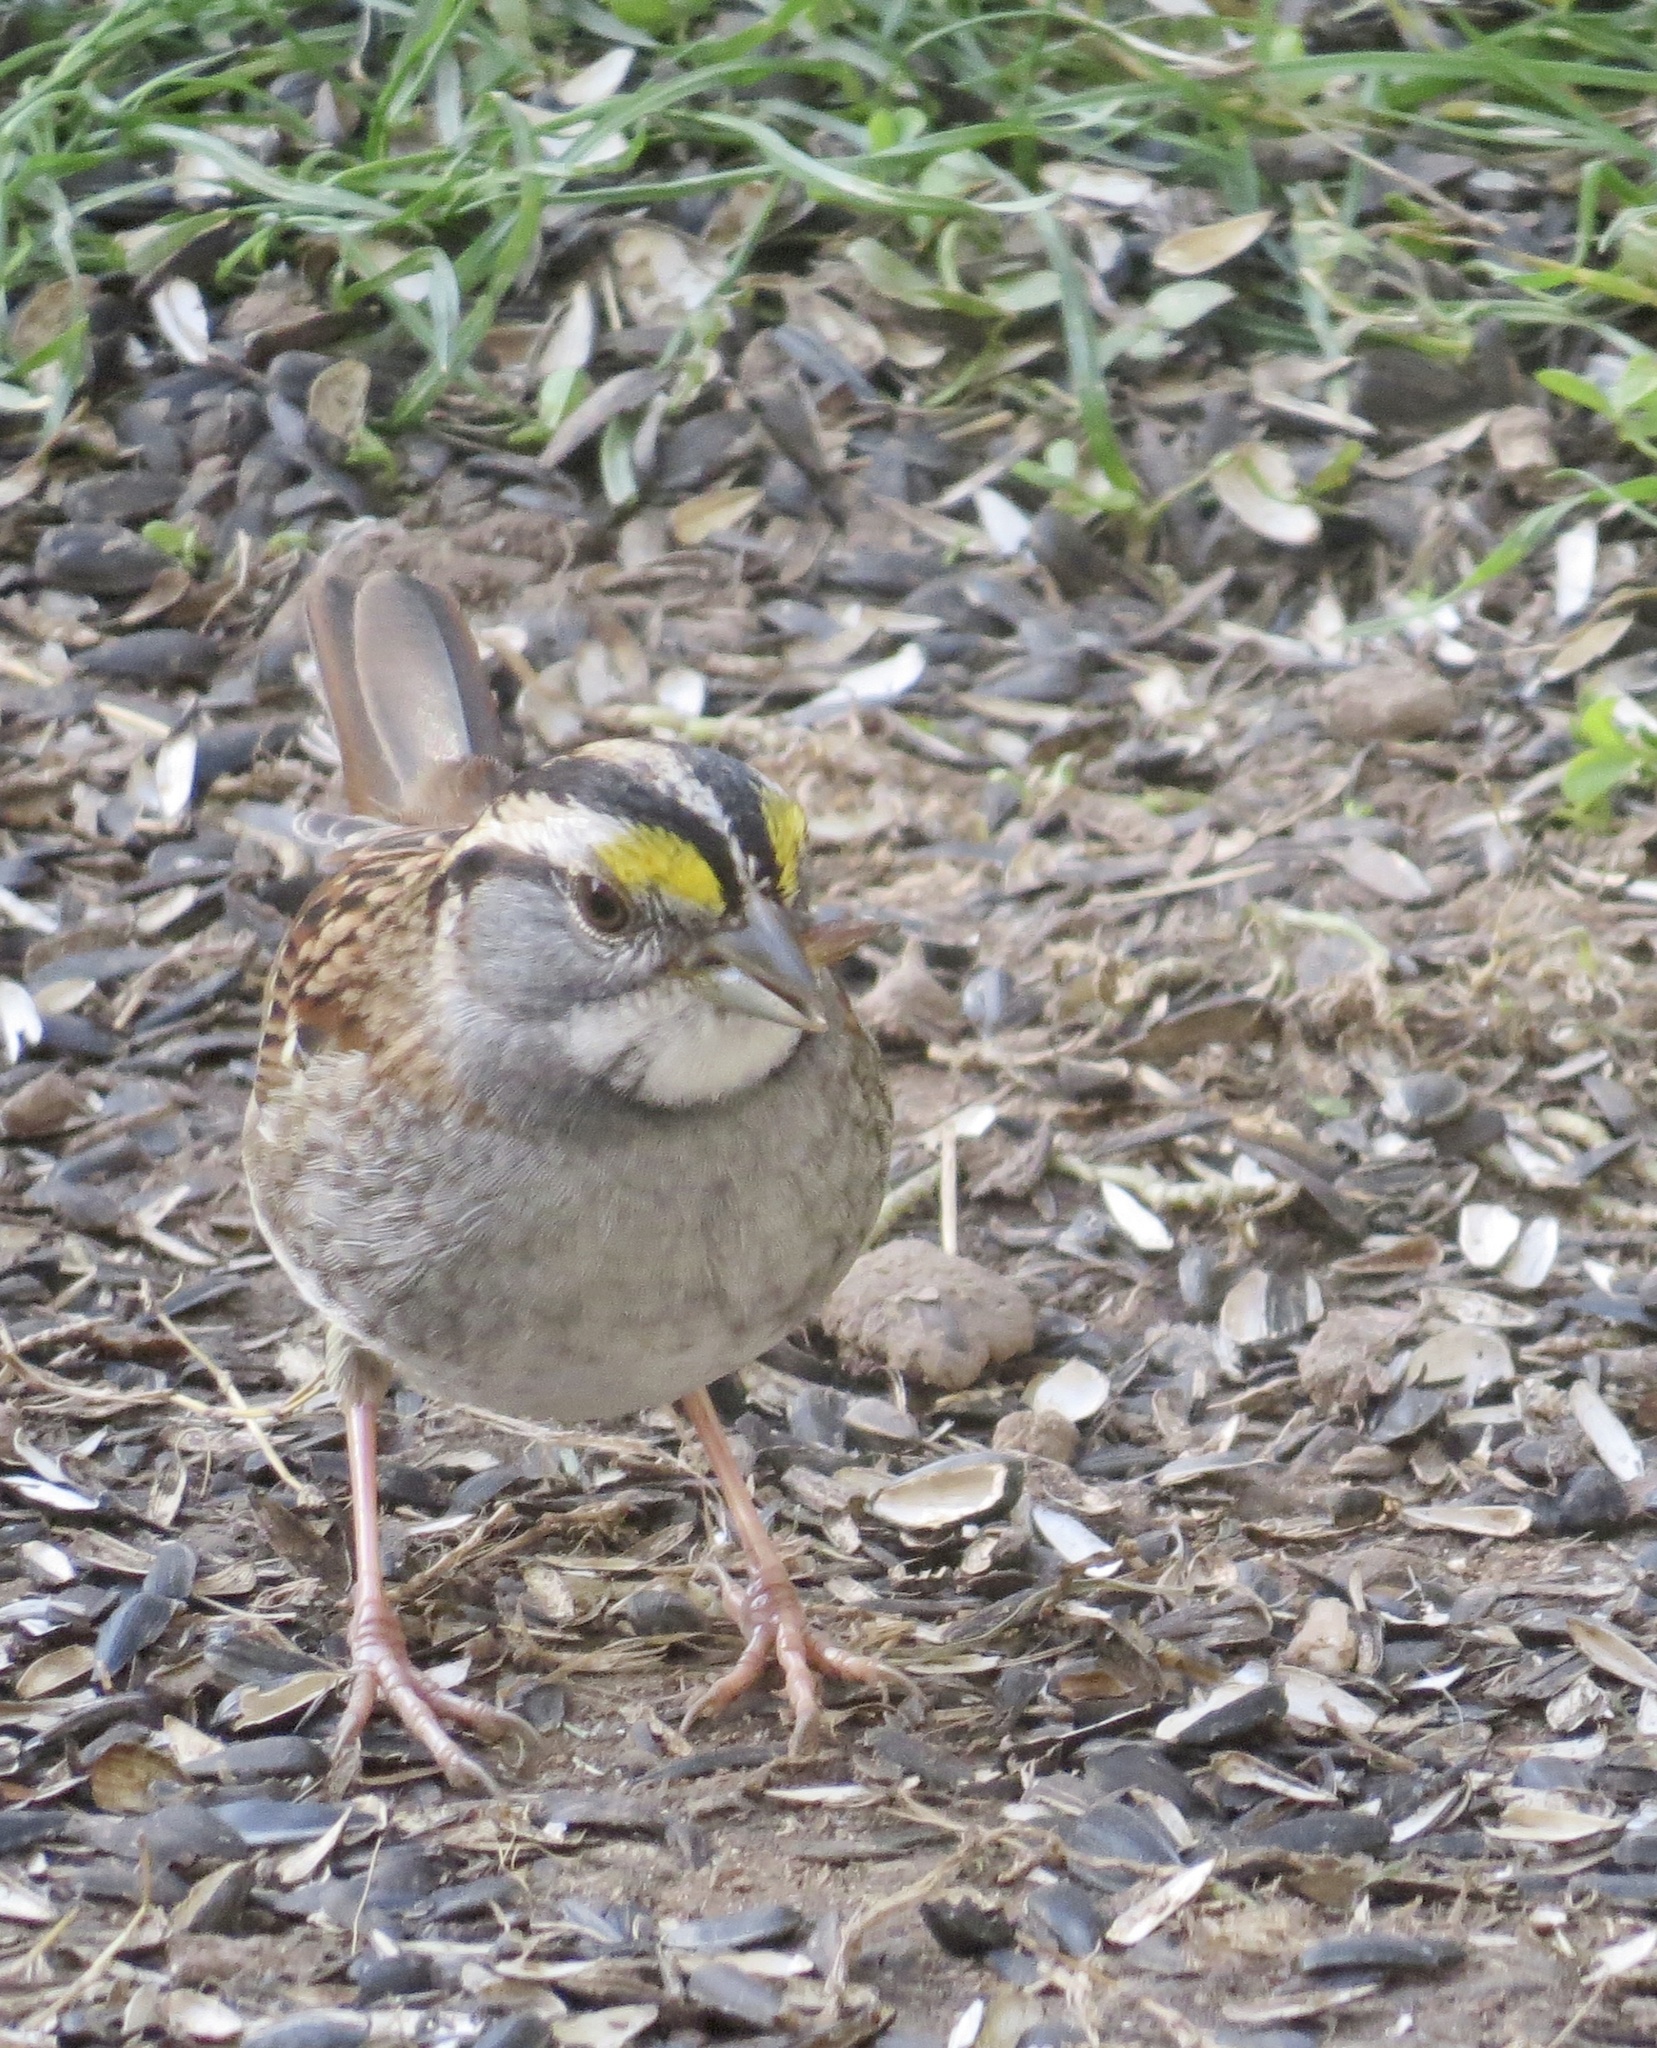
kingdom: Animalia
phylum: Chordata
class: Aves
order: Passeriformes
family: Passerellidae
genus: Zonotrichia
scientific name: Zonotrichia albicollis
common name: White-throated sparrow
